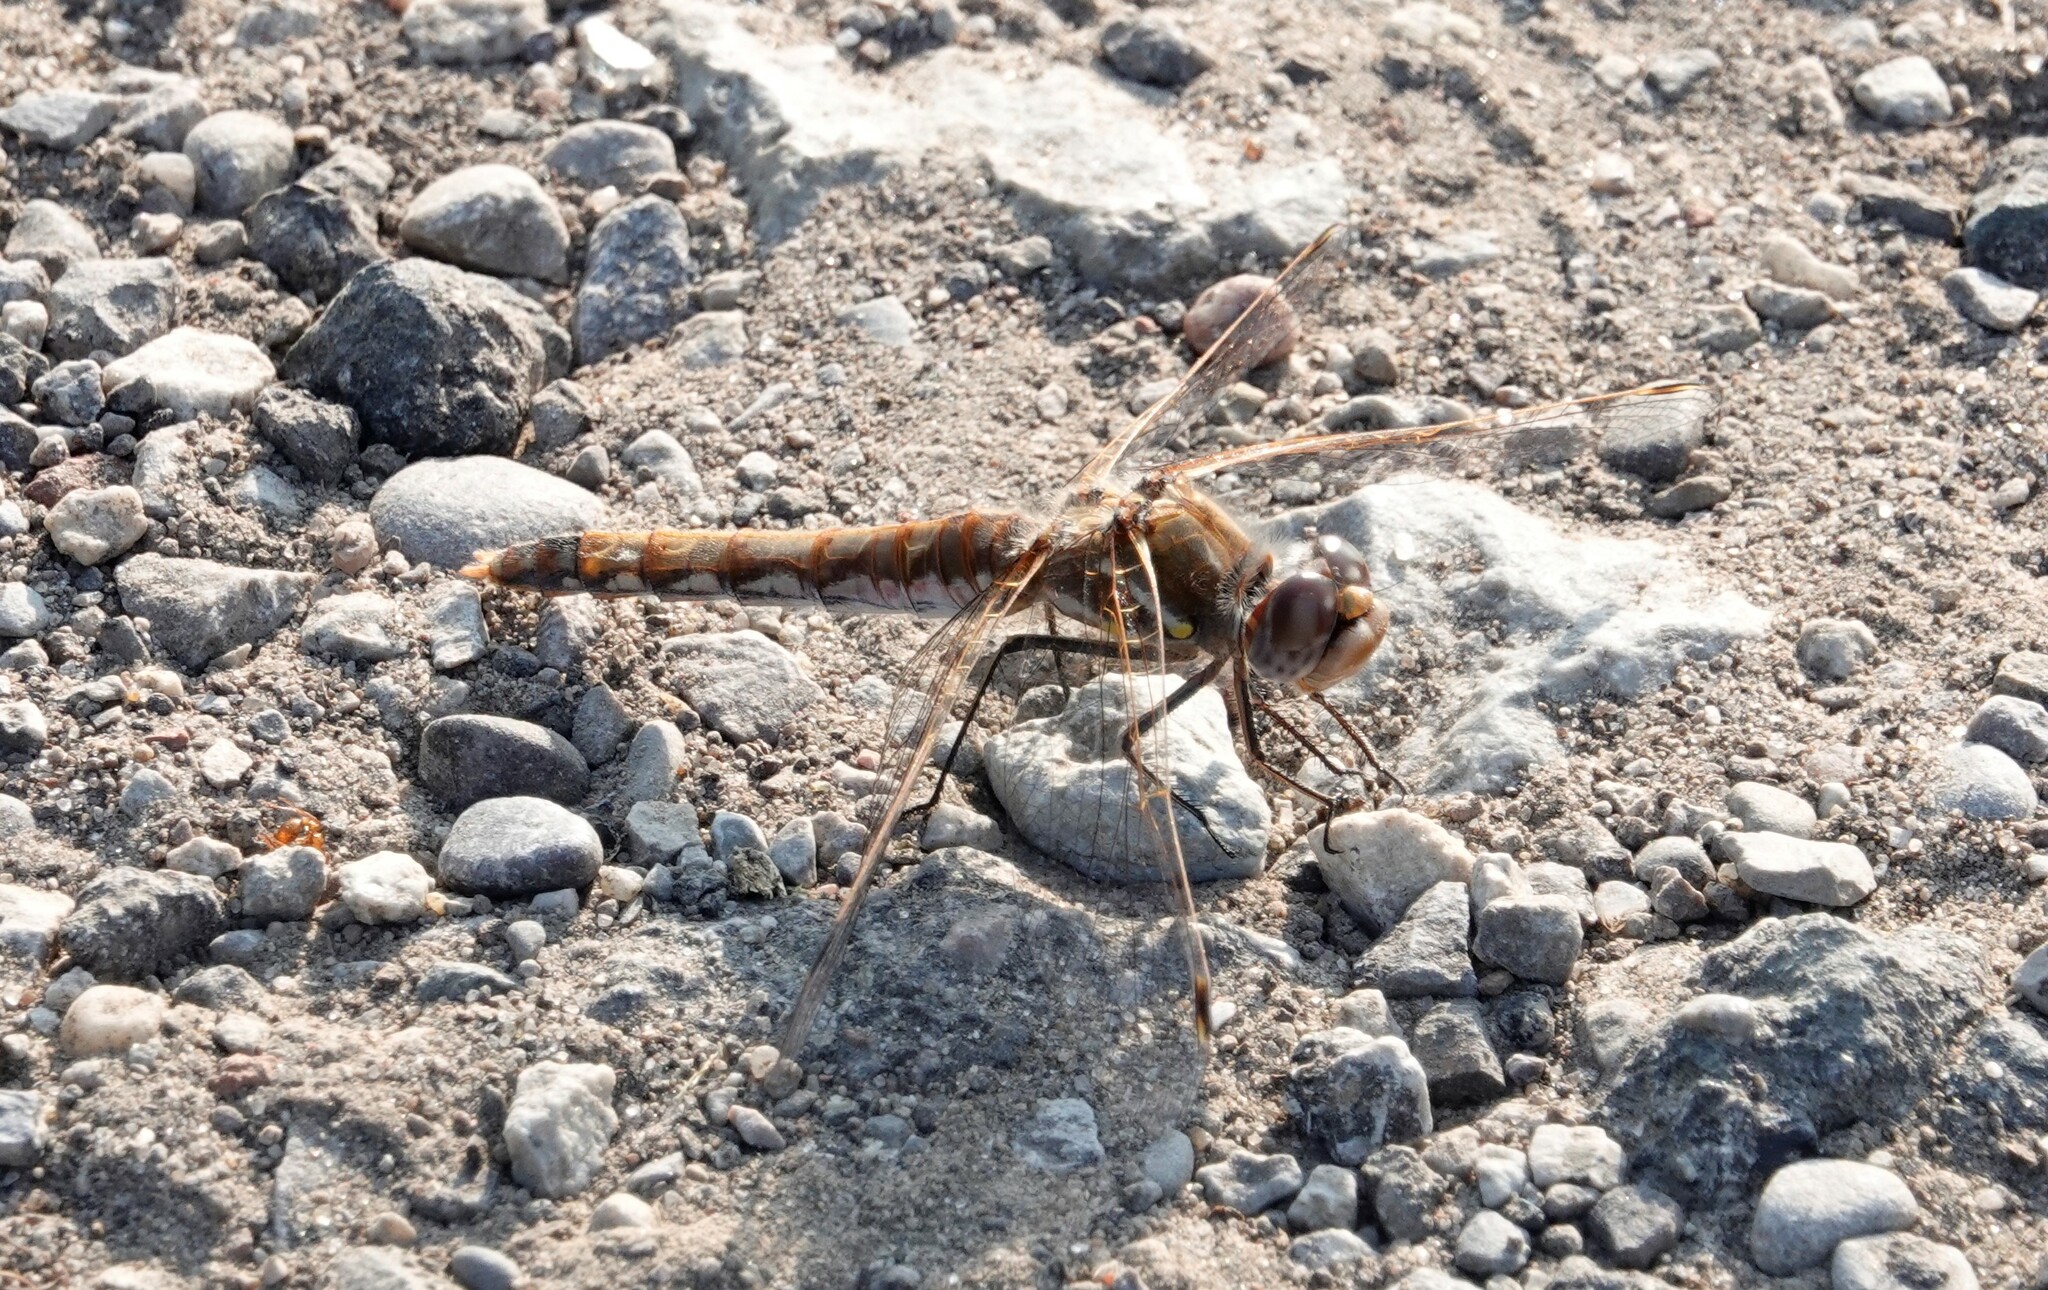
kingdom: Animalia
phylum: Arthropoda
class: Insecta
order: Odonata
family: Libellulidae
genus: Sympetrum
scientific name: Sympetrum corruptum
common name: Variegated meadowhawk
